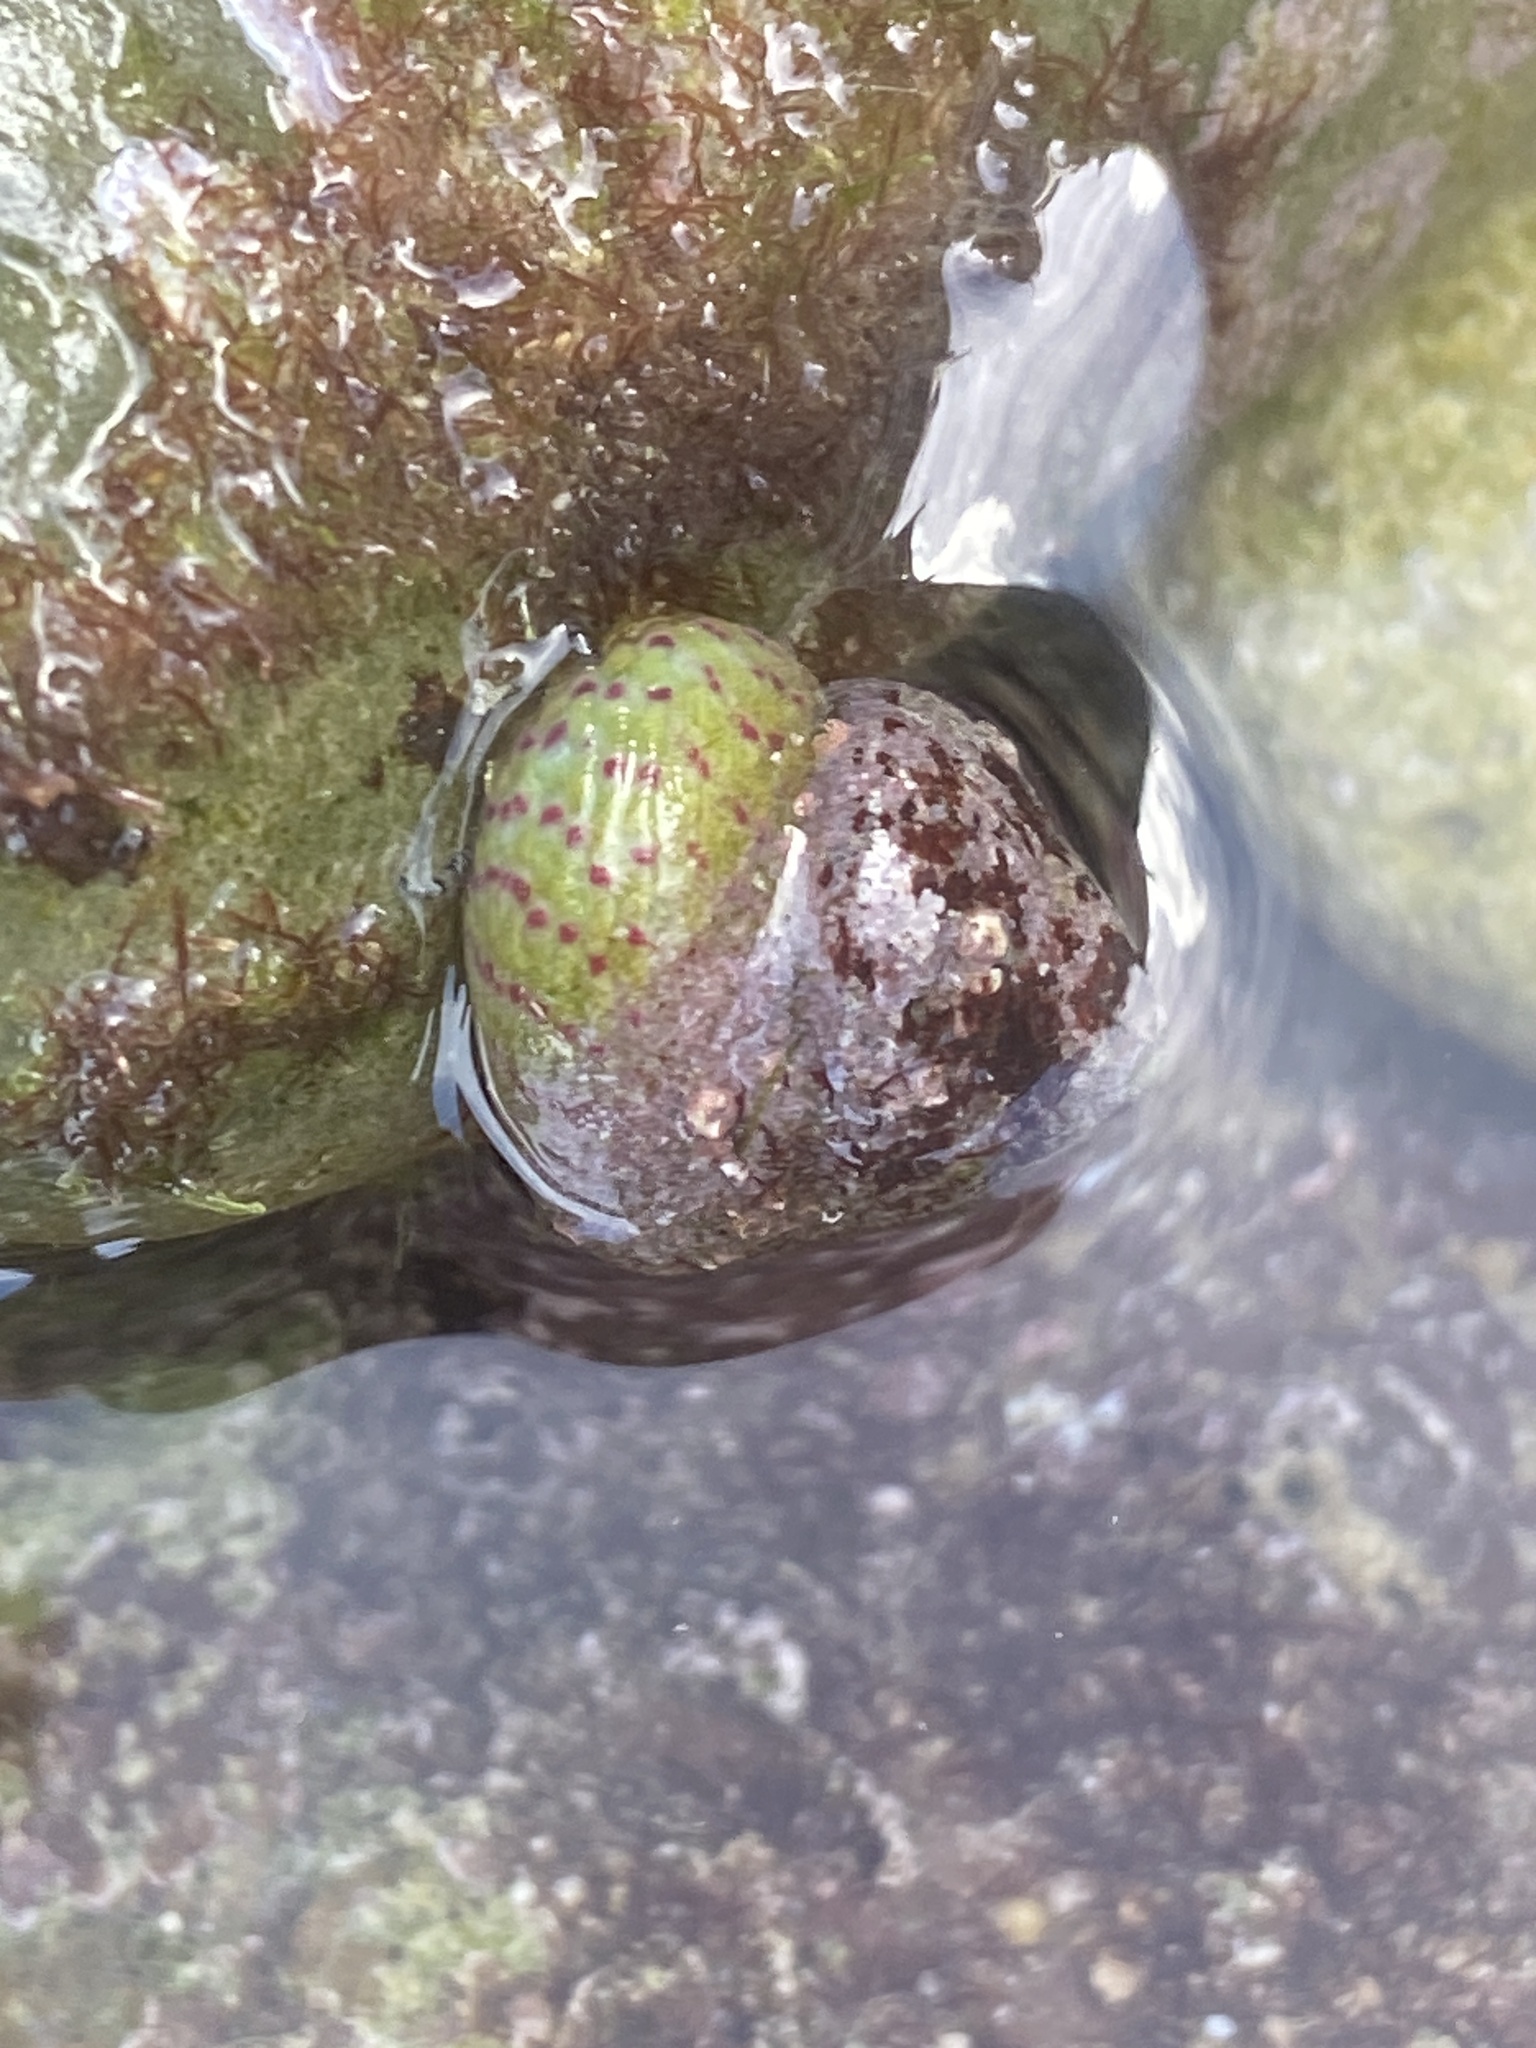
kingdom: Animalia
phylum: Mollusca
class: Gastropoda
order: Trochida
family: Trochidae
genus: Steromphala
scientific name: Steromphala divaricata
